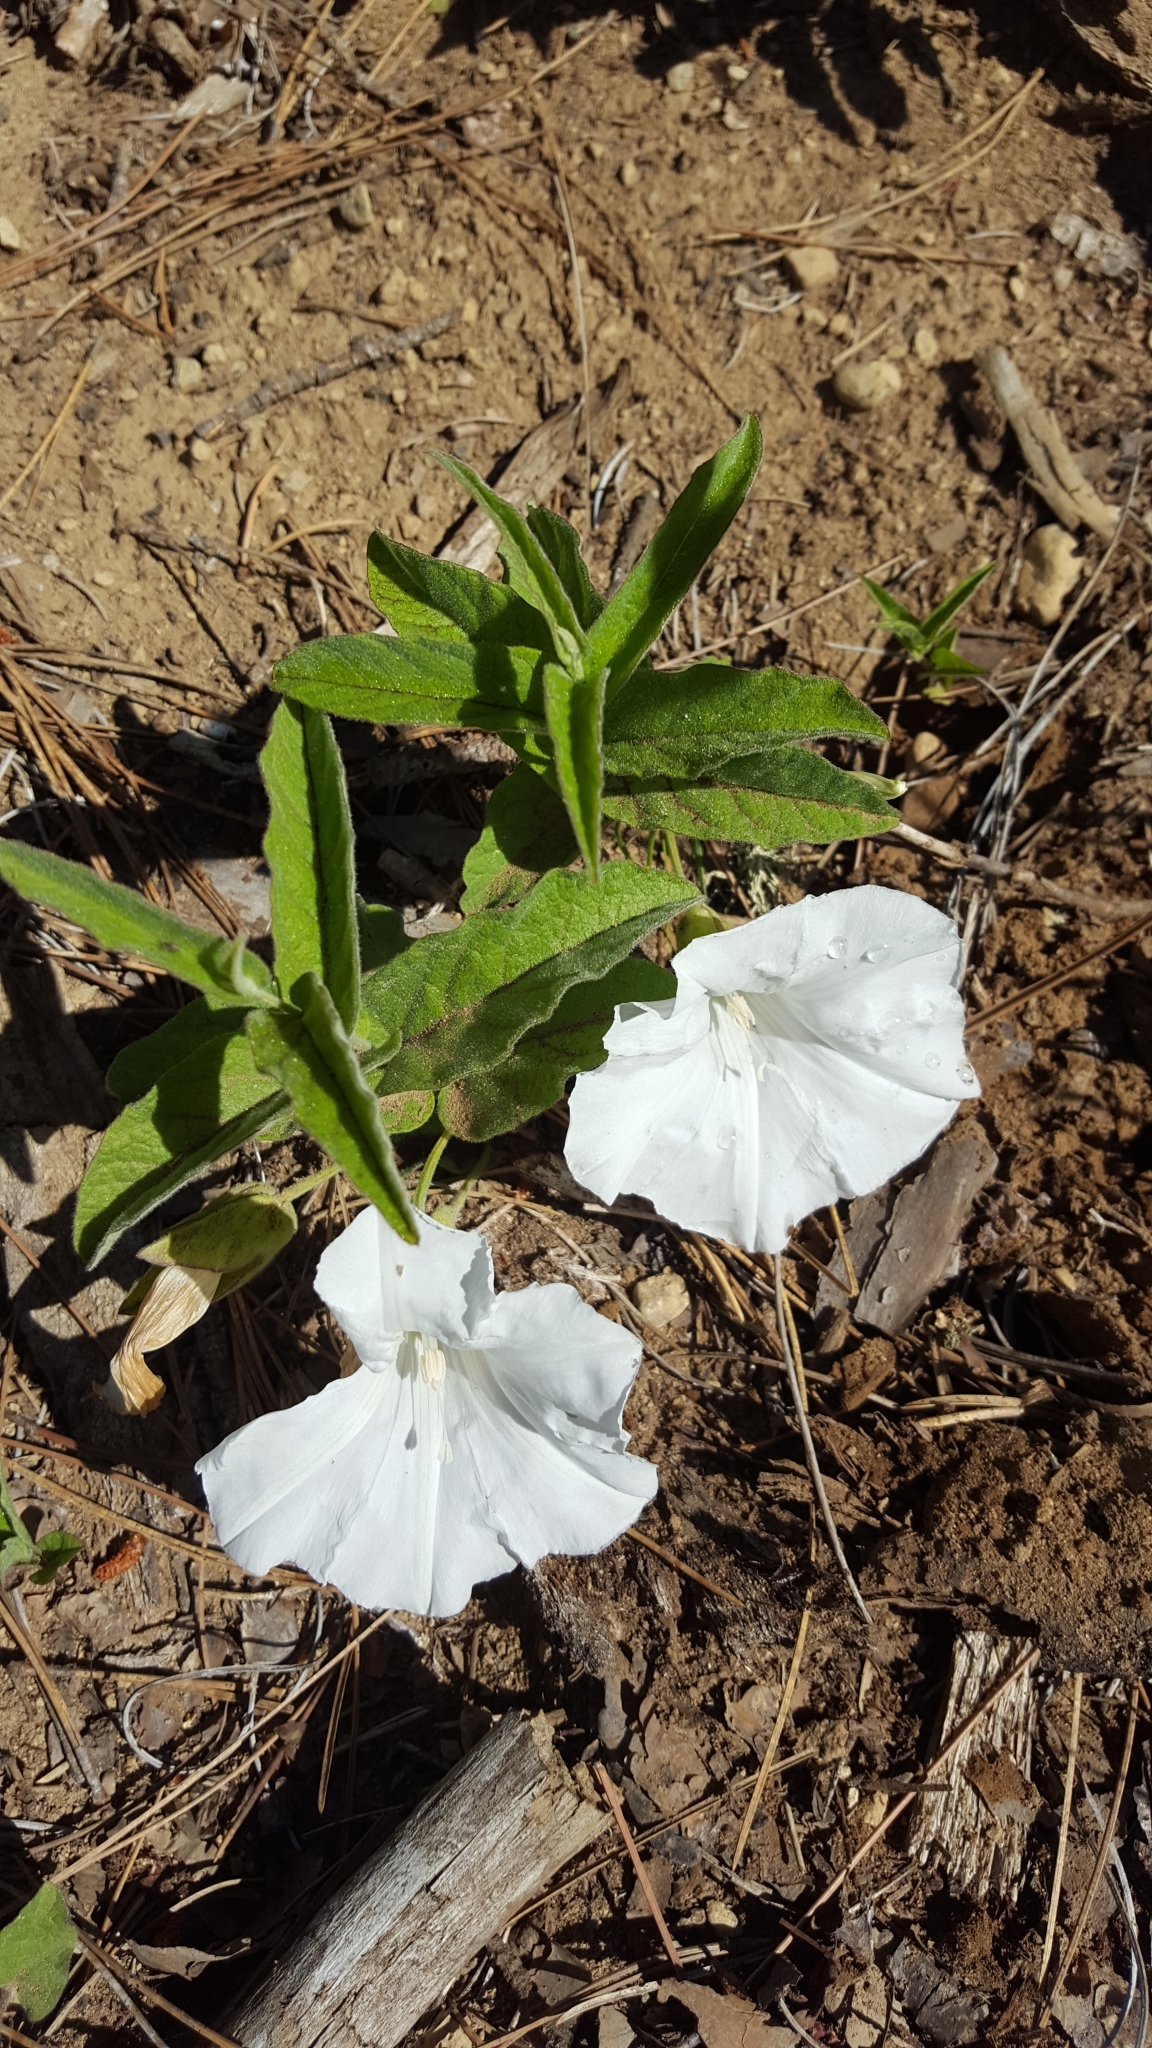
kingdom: Plantae
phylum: Tracheophyta
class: Magnoliopsida
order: Solanales
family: Convolvulaceae
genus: Calystegia
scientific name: Calystegia spithamaea
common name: Dwarf bindweed
